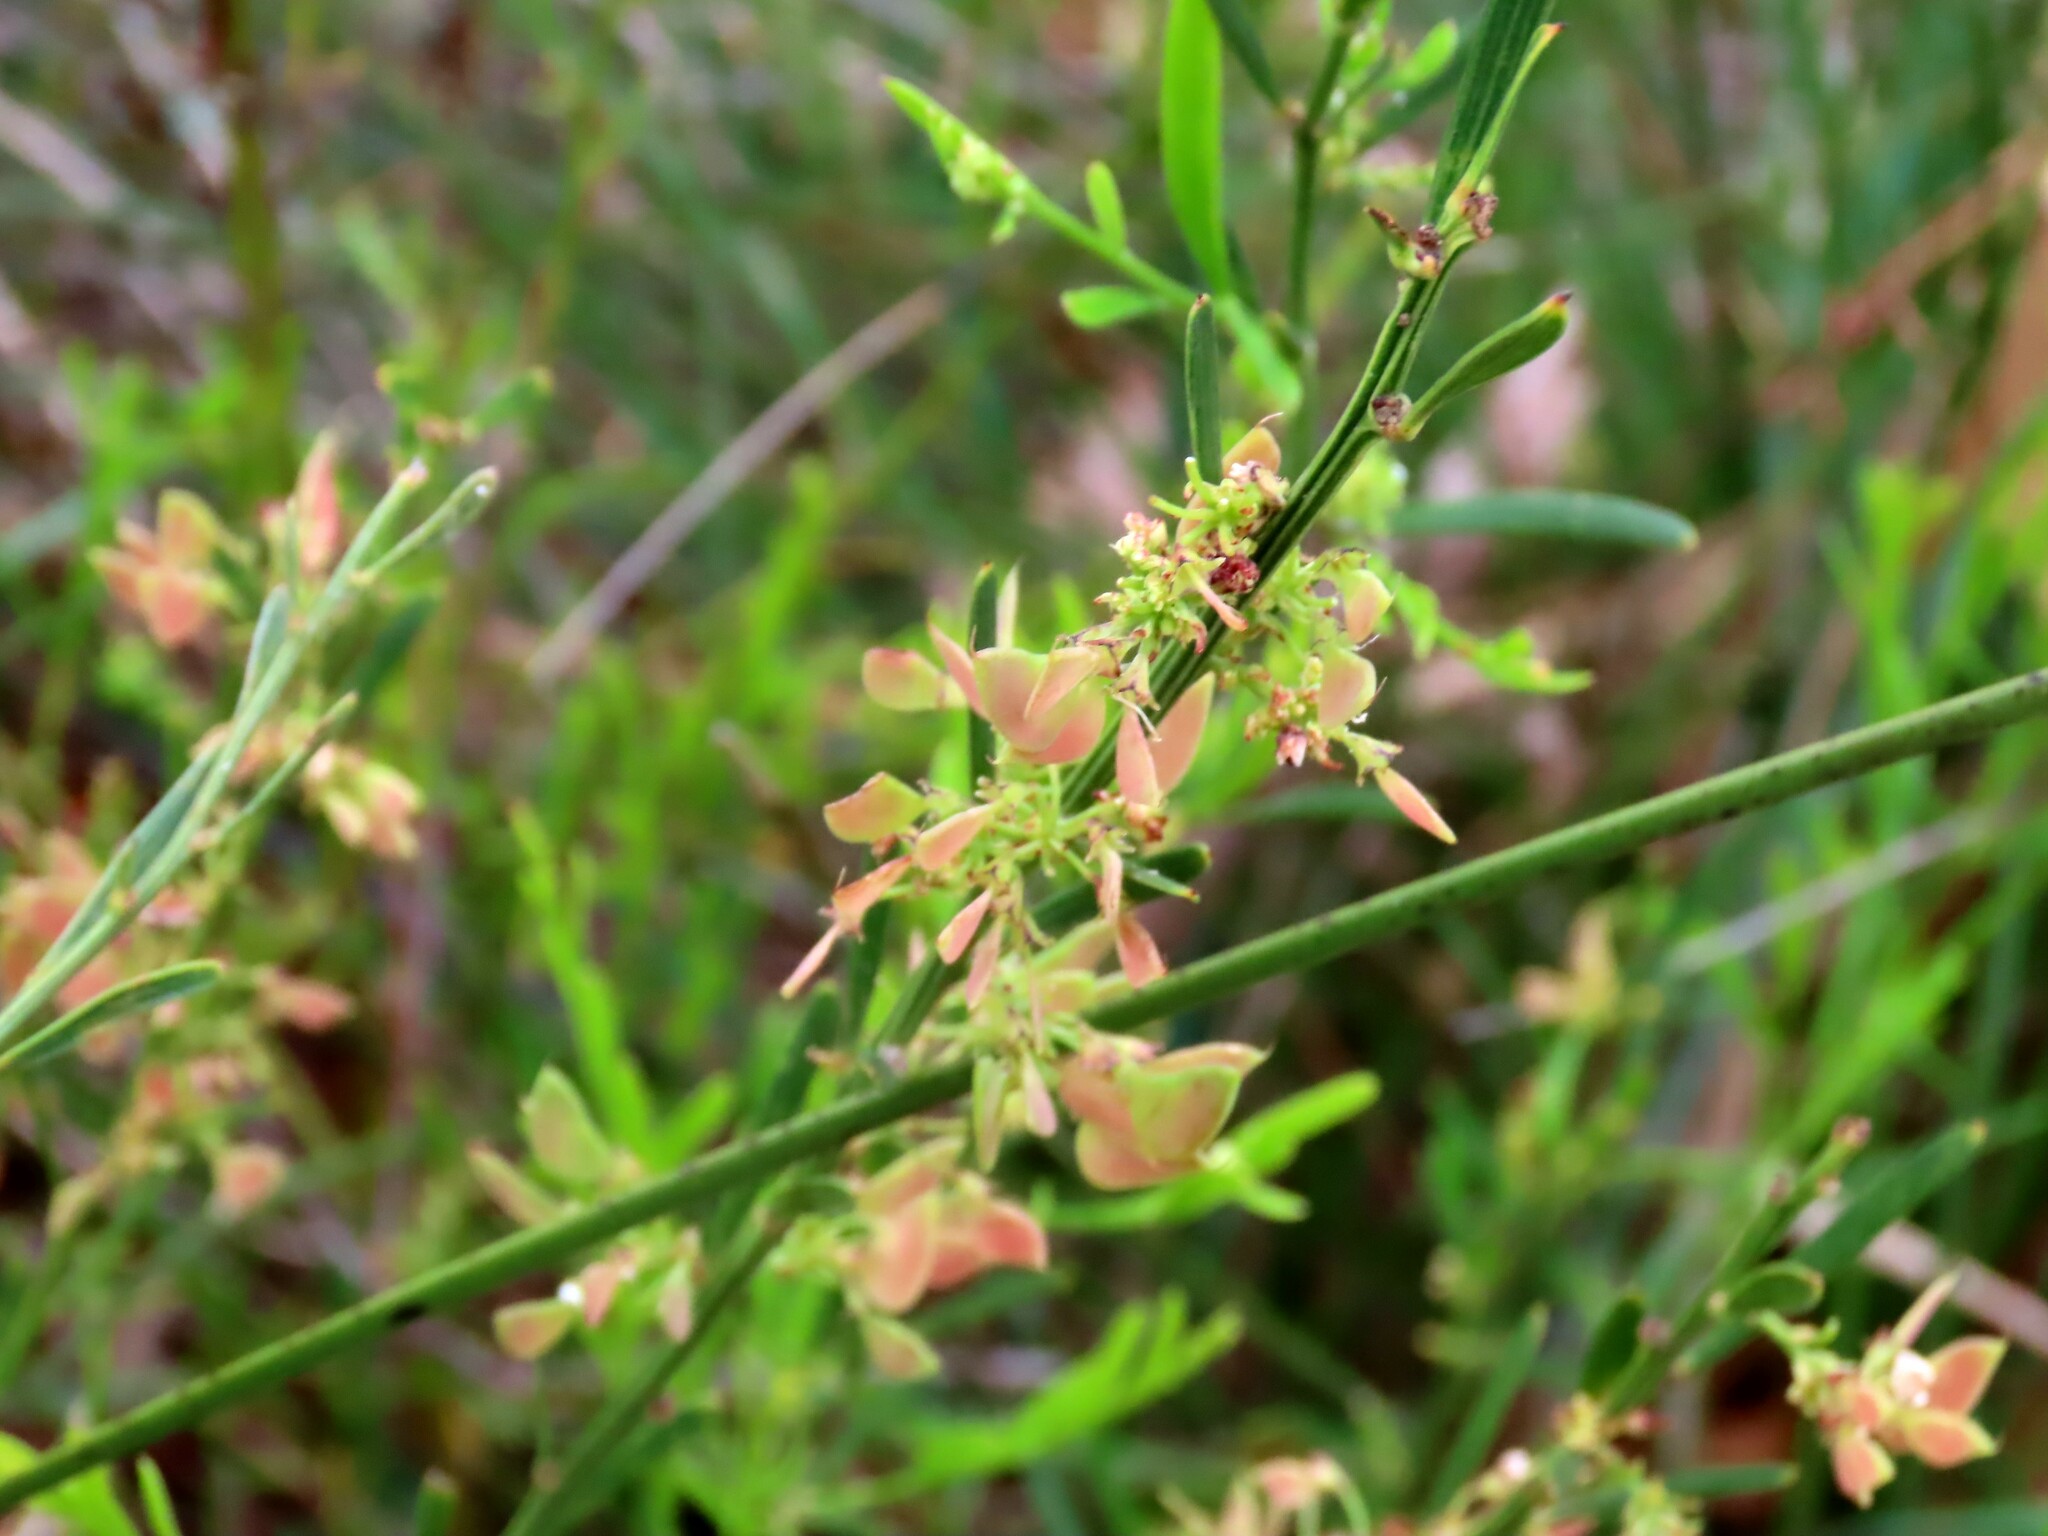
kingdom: Plantae
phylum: Tracheophyta
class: Magnoliopsida
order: Fabales
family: Fabaceae
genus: Daviesia
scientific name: Daviesia leptophylla
